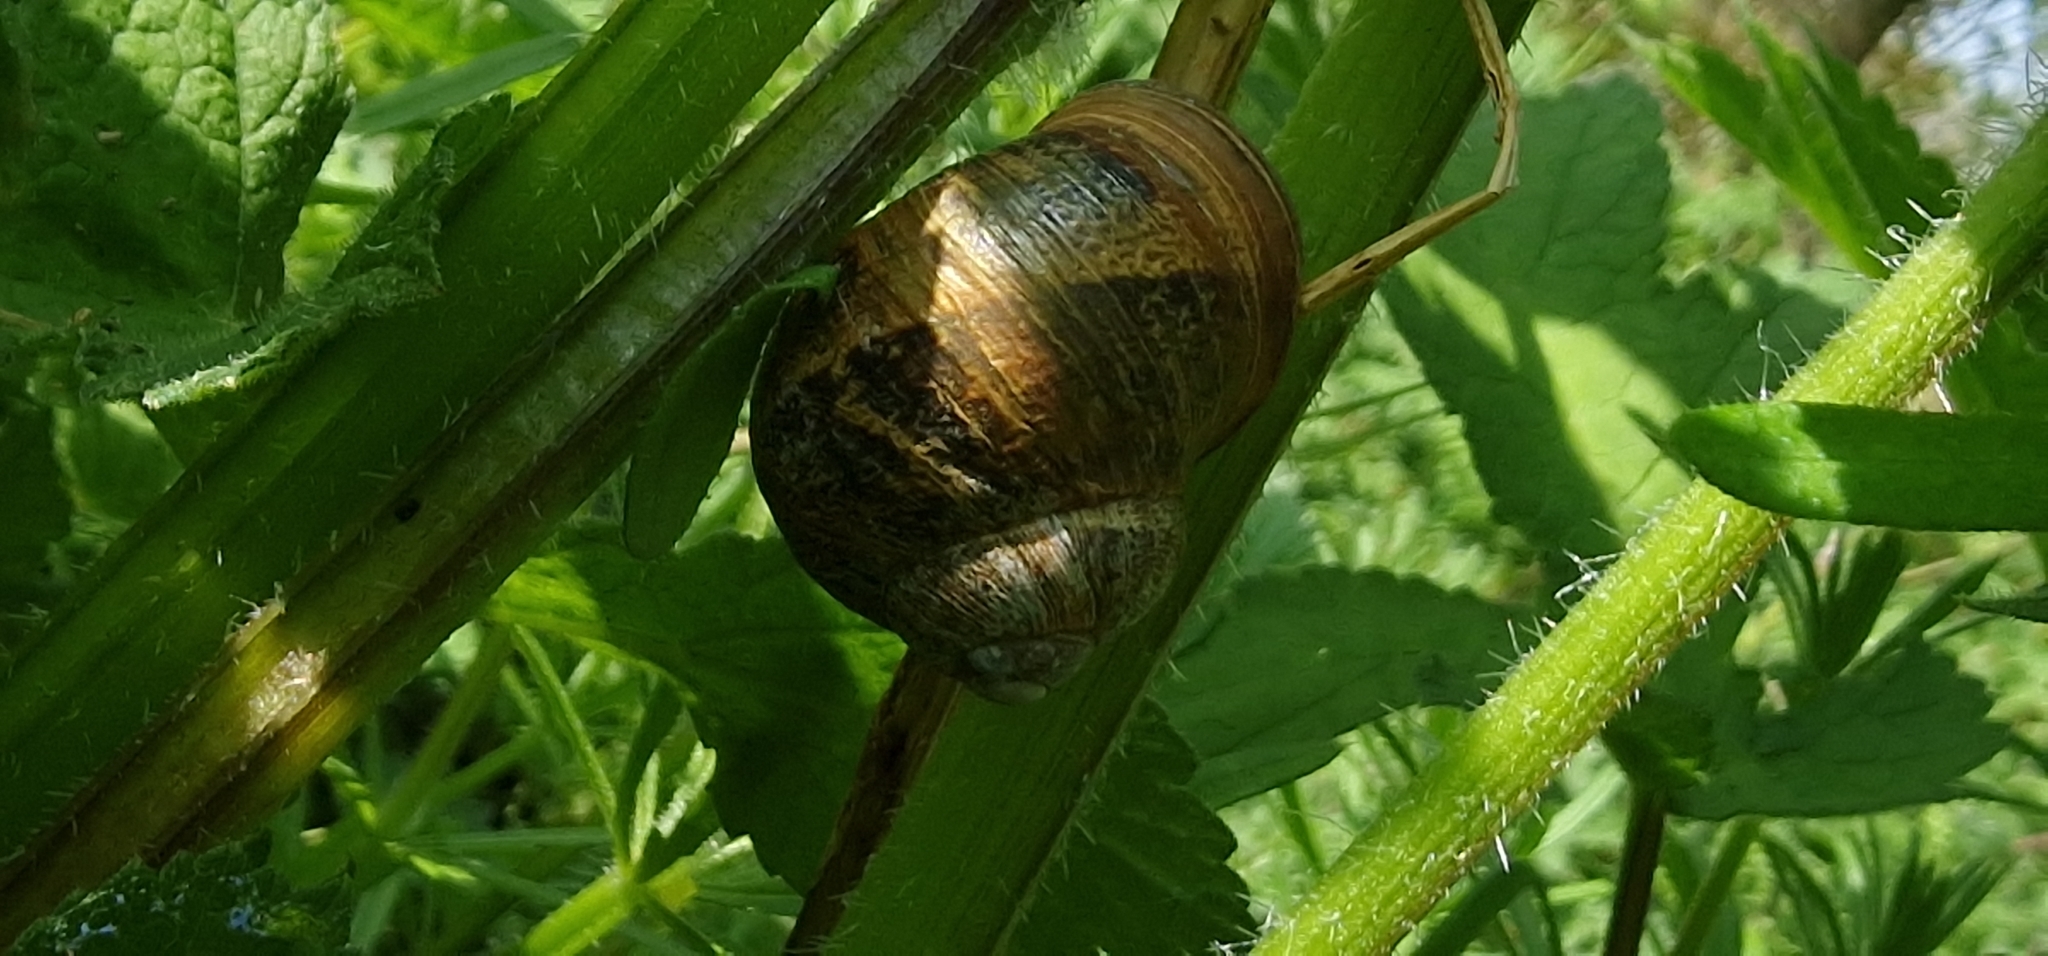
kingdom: Animalia
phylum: Mollusca
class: Gastropoda
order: Stylommatophora
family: Helicidae
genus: Cornu
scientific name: Cornu aspersum
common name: Brown garden snail
